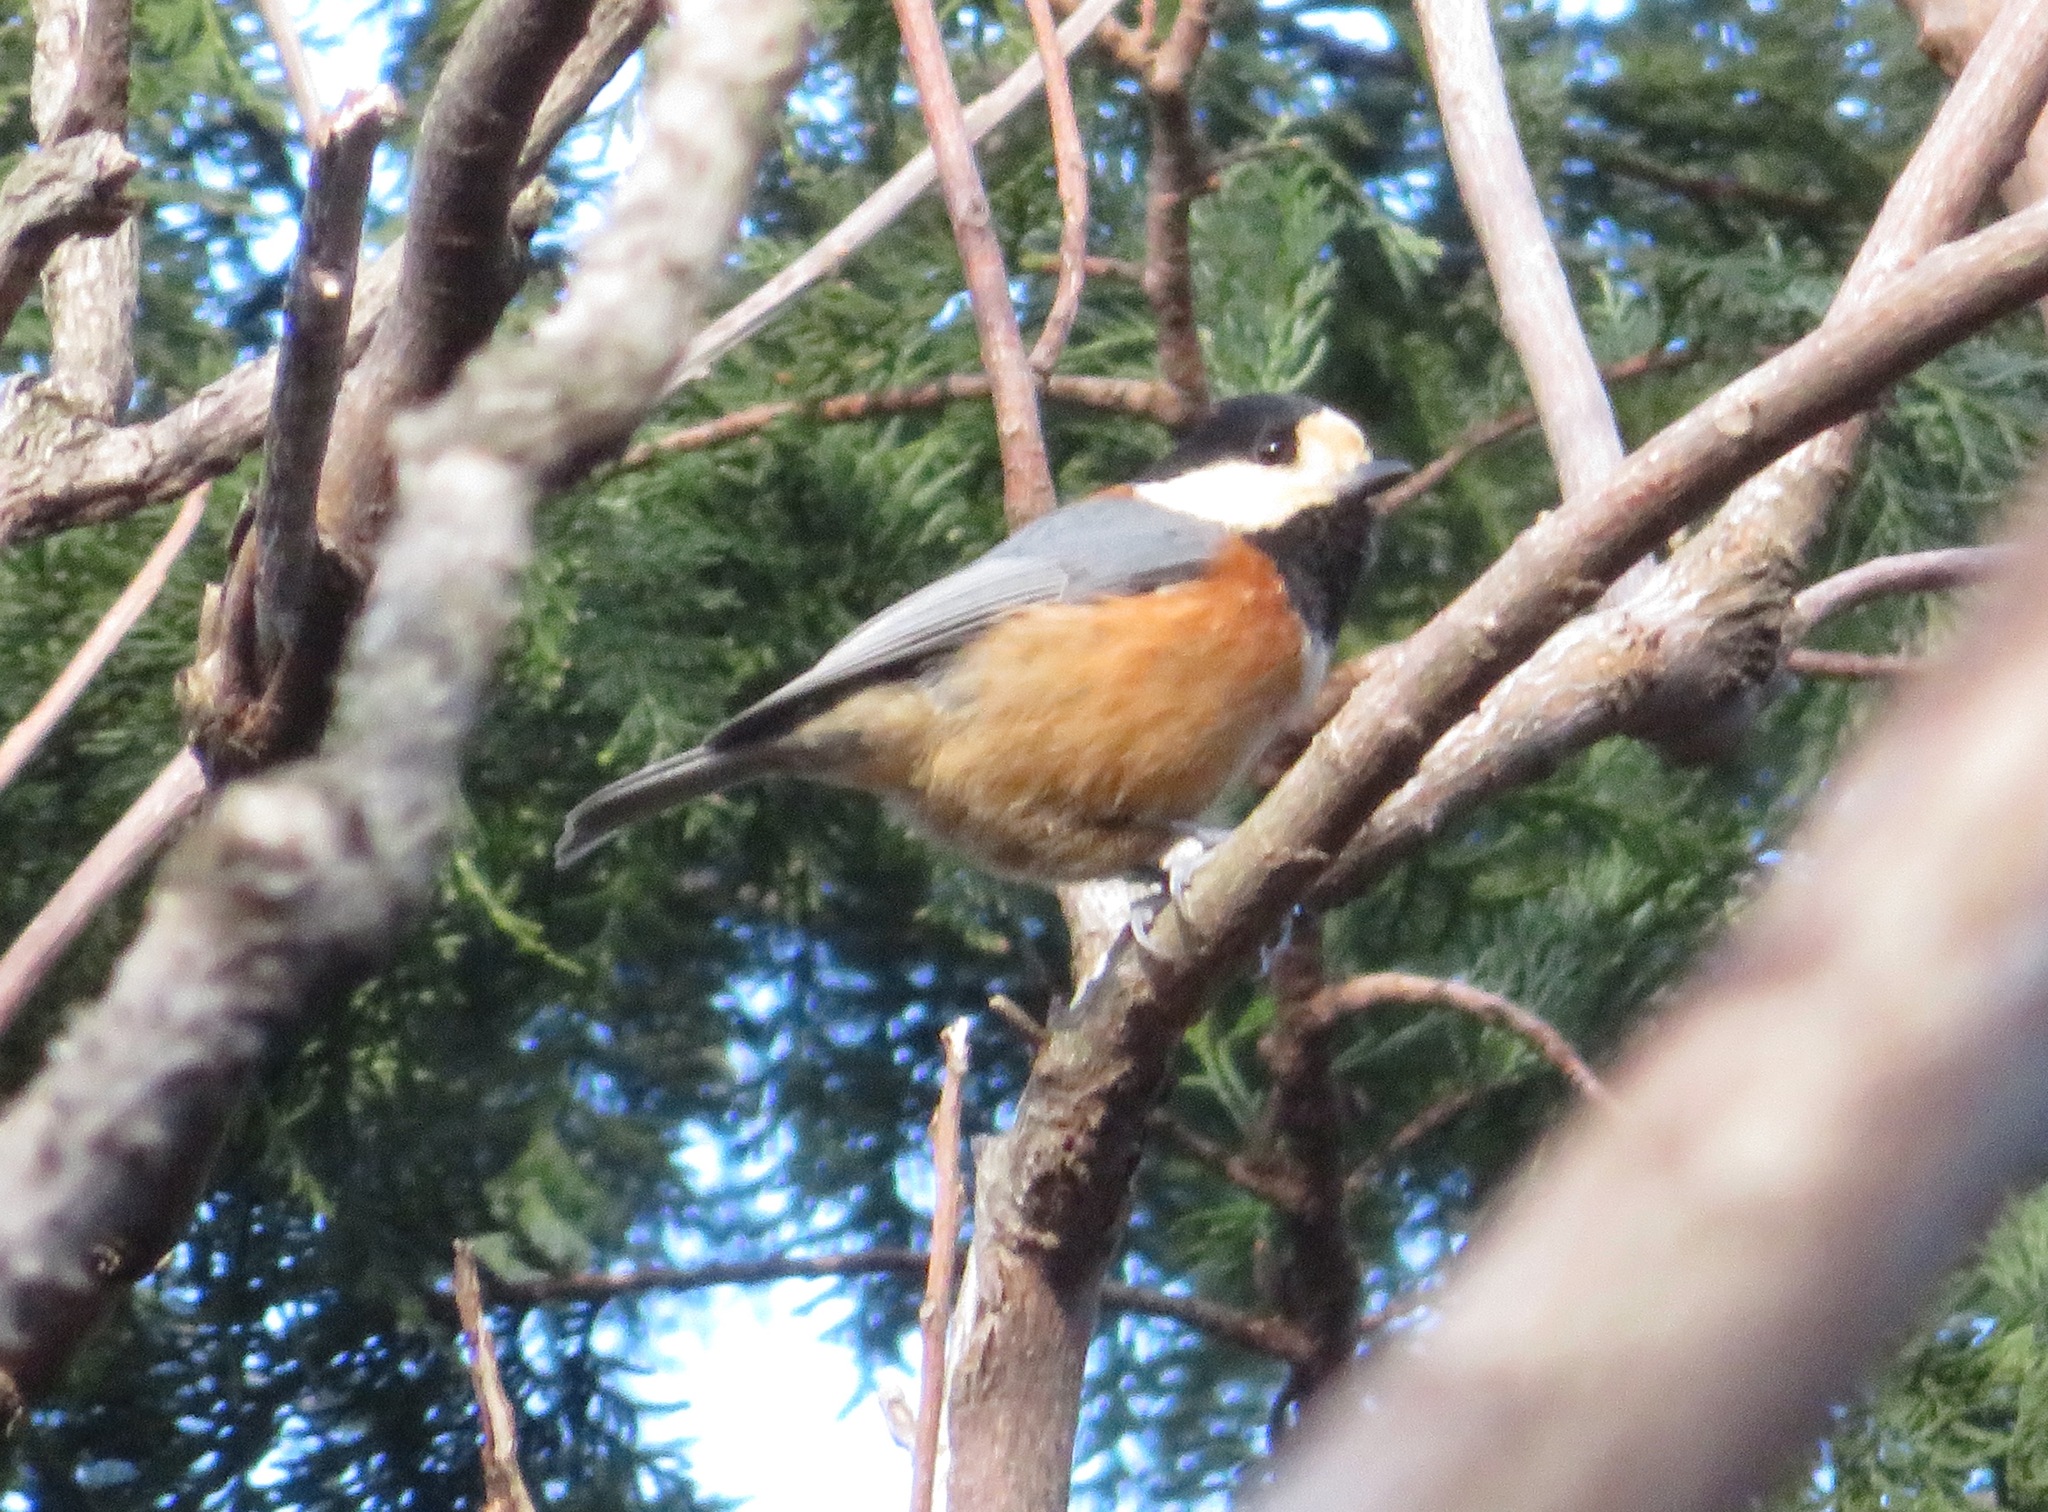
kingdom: Animalia
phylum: Chordata
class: Aves
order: Passeriformes
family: Paridae
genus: Poecile
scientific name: Poecile varius
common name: Varied tit
